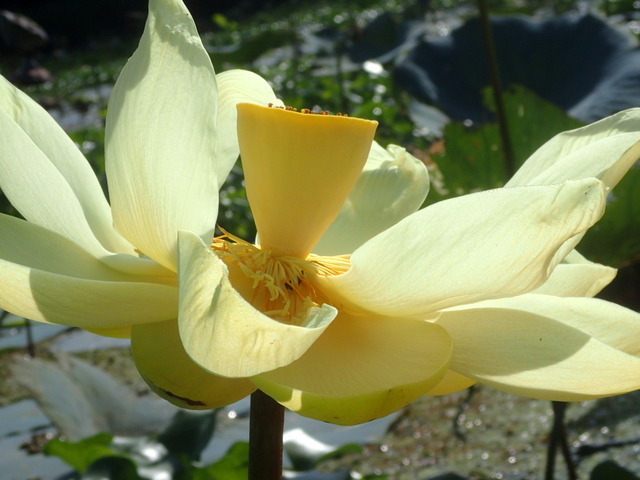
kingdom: Plantae
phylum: Tracheophyta
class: Magnoliopsida
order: Proteales
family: Nelumbonaceae
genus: Nelumbo
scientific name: Nelumbo lutea
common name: American lotus
